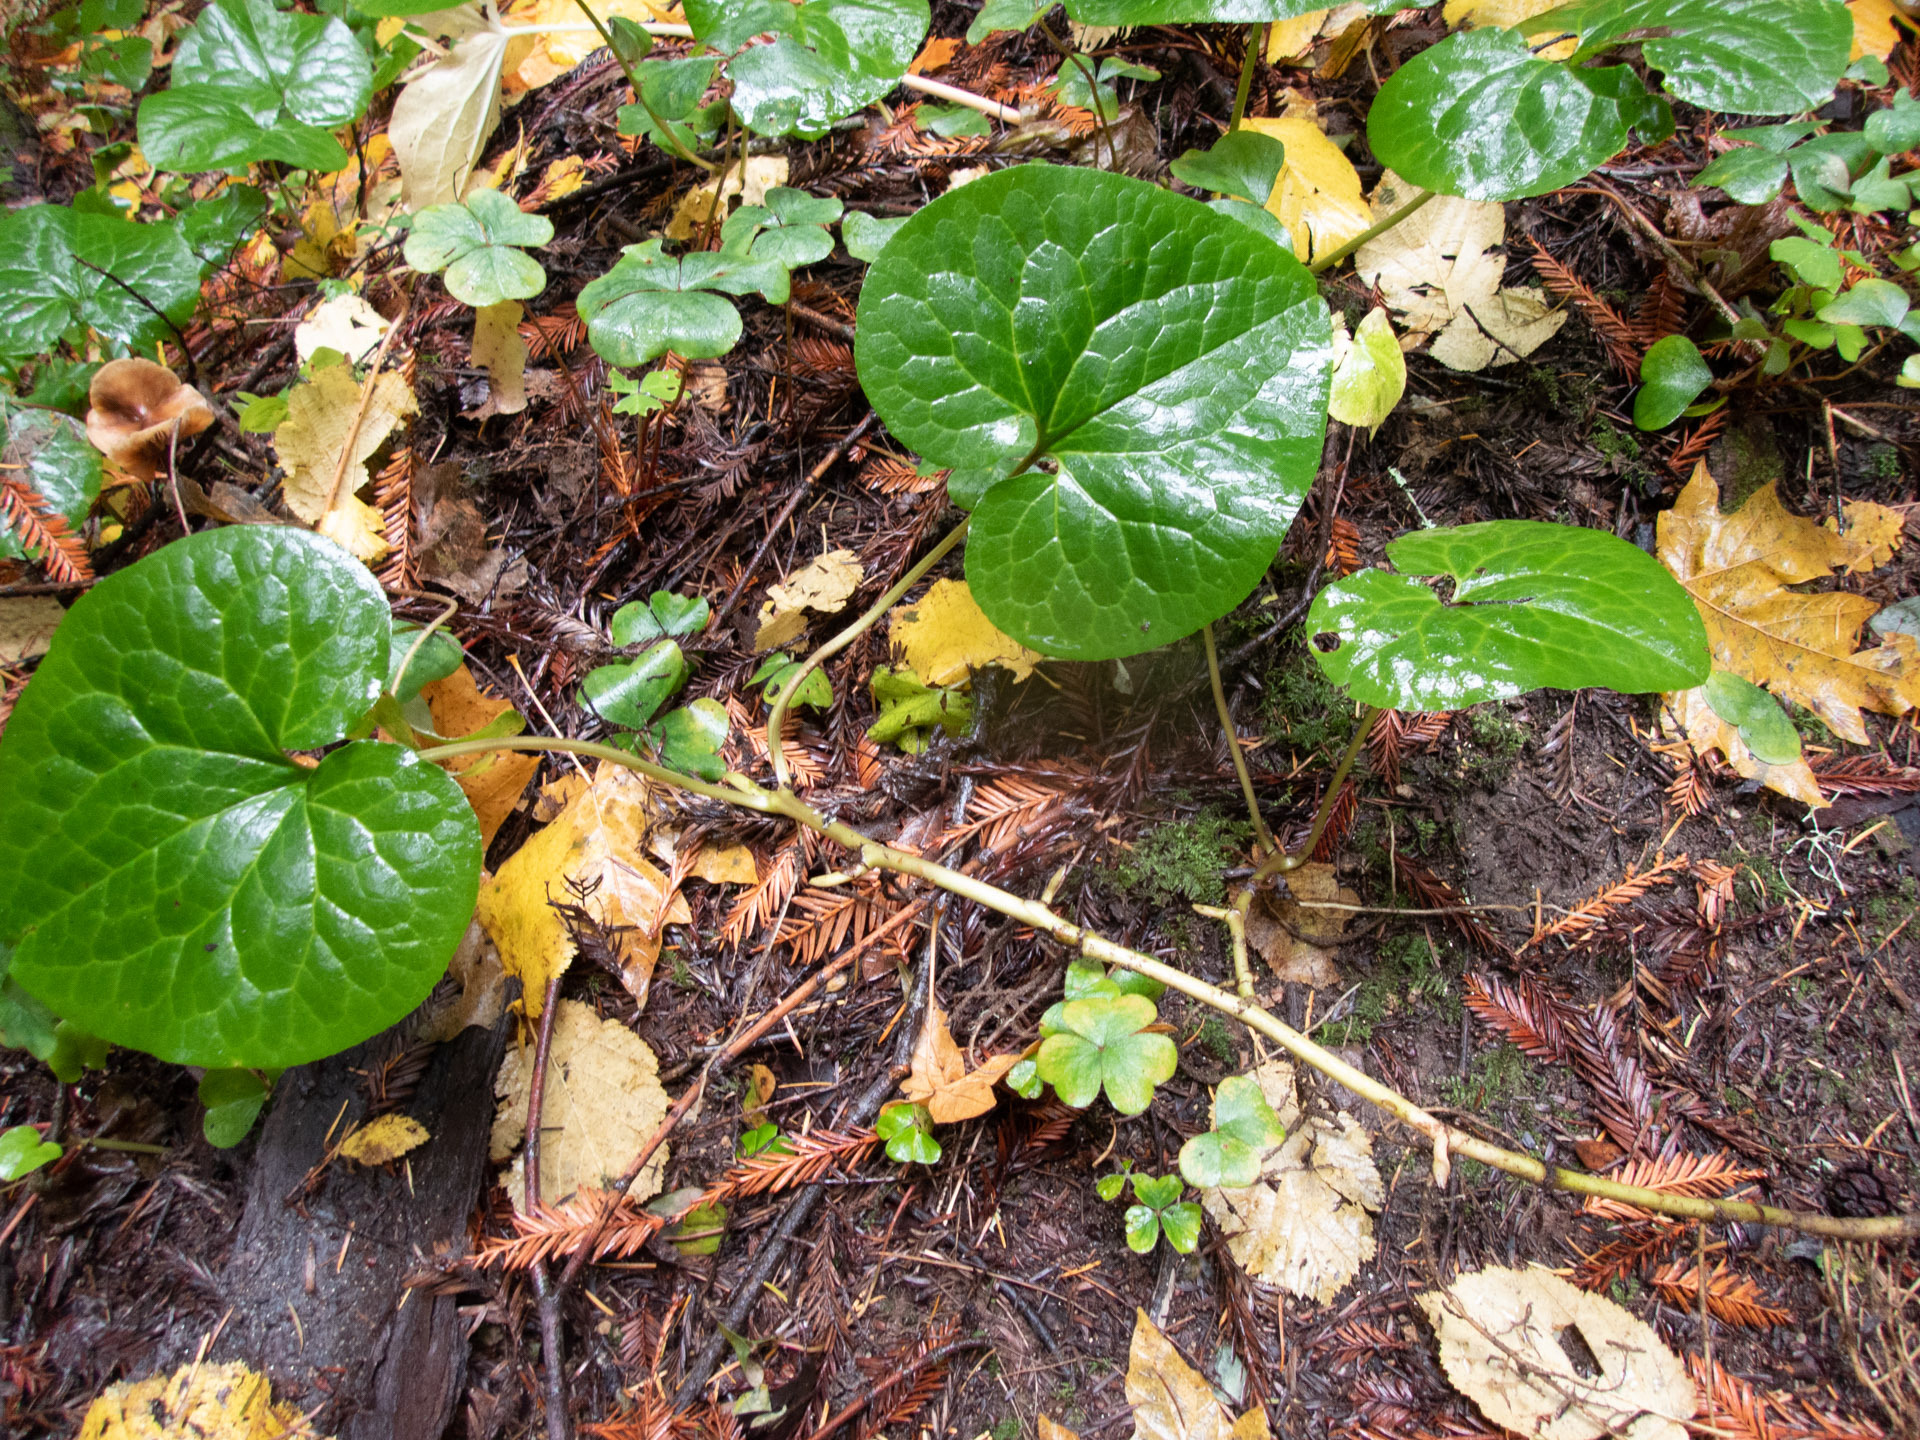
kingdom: Plantae
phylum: Tracheophyta
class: Magnoliopsida
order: Piperales
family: Aristolochiaceae
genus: Asarum
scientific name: Asarum caudatum
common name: Wild ginger
